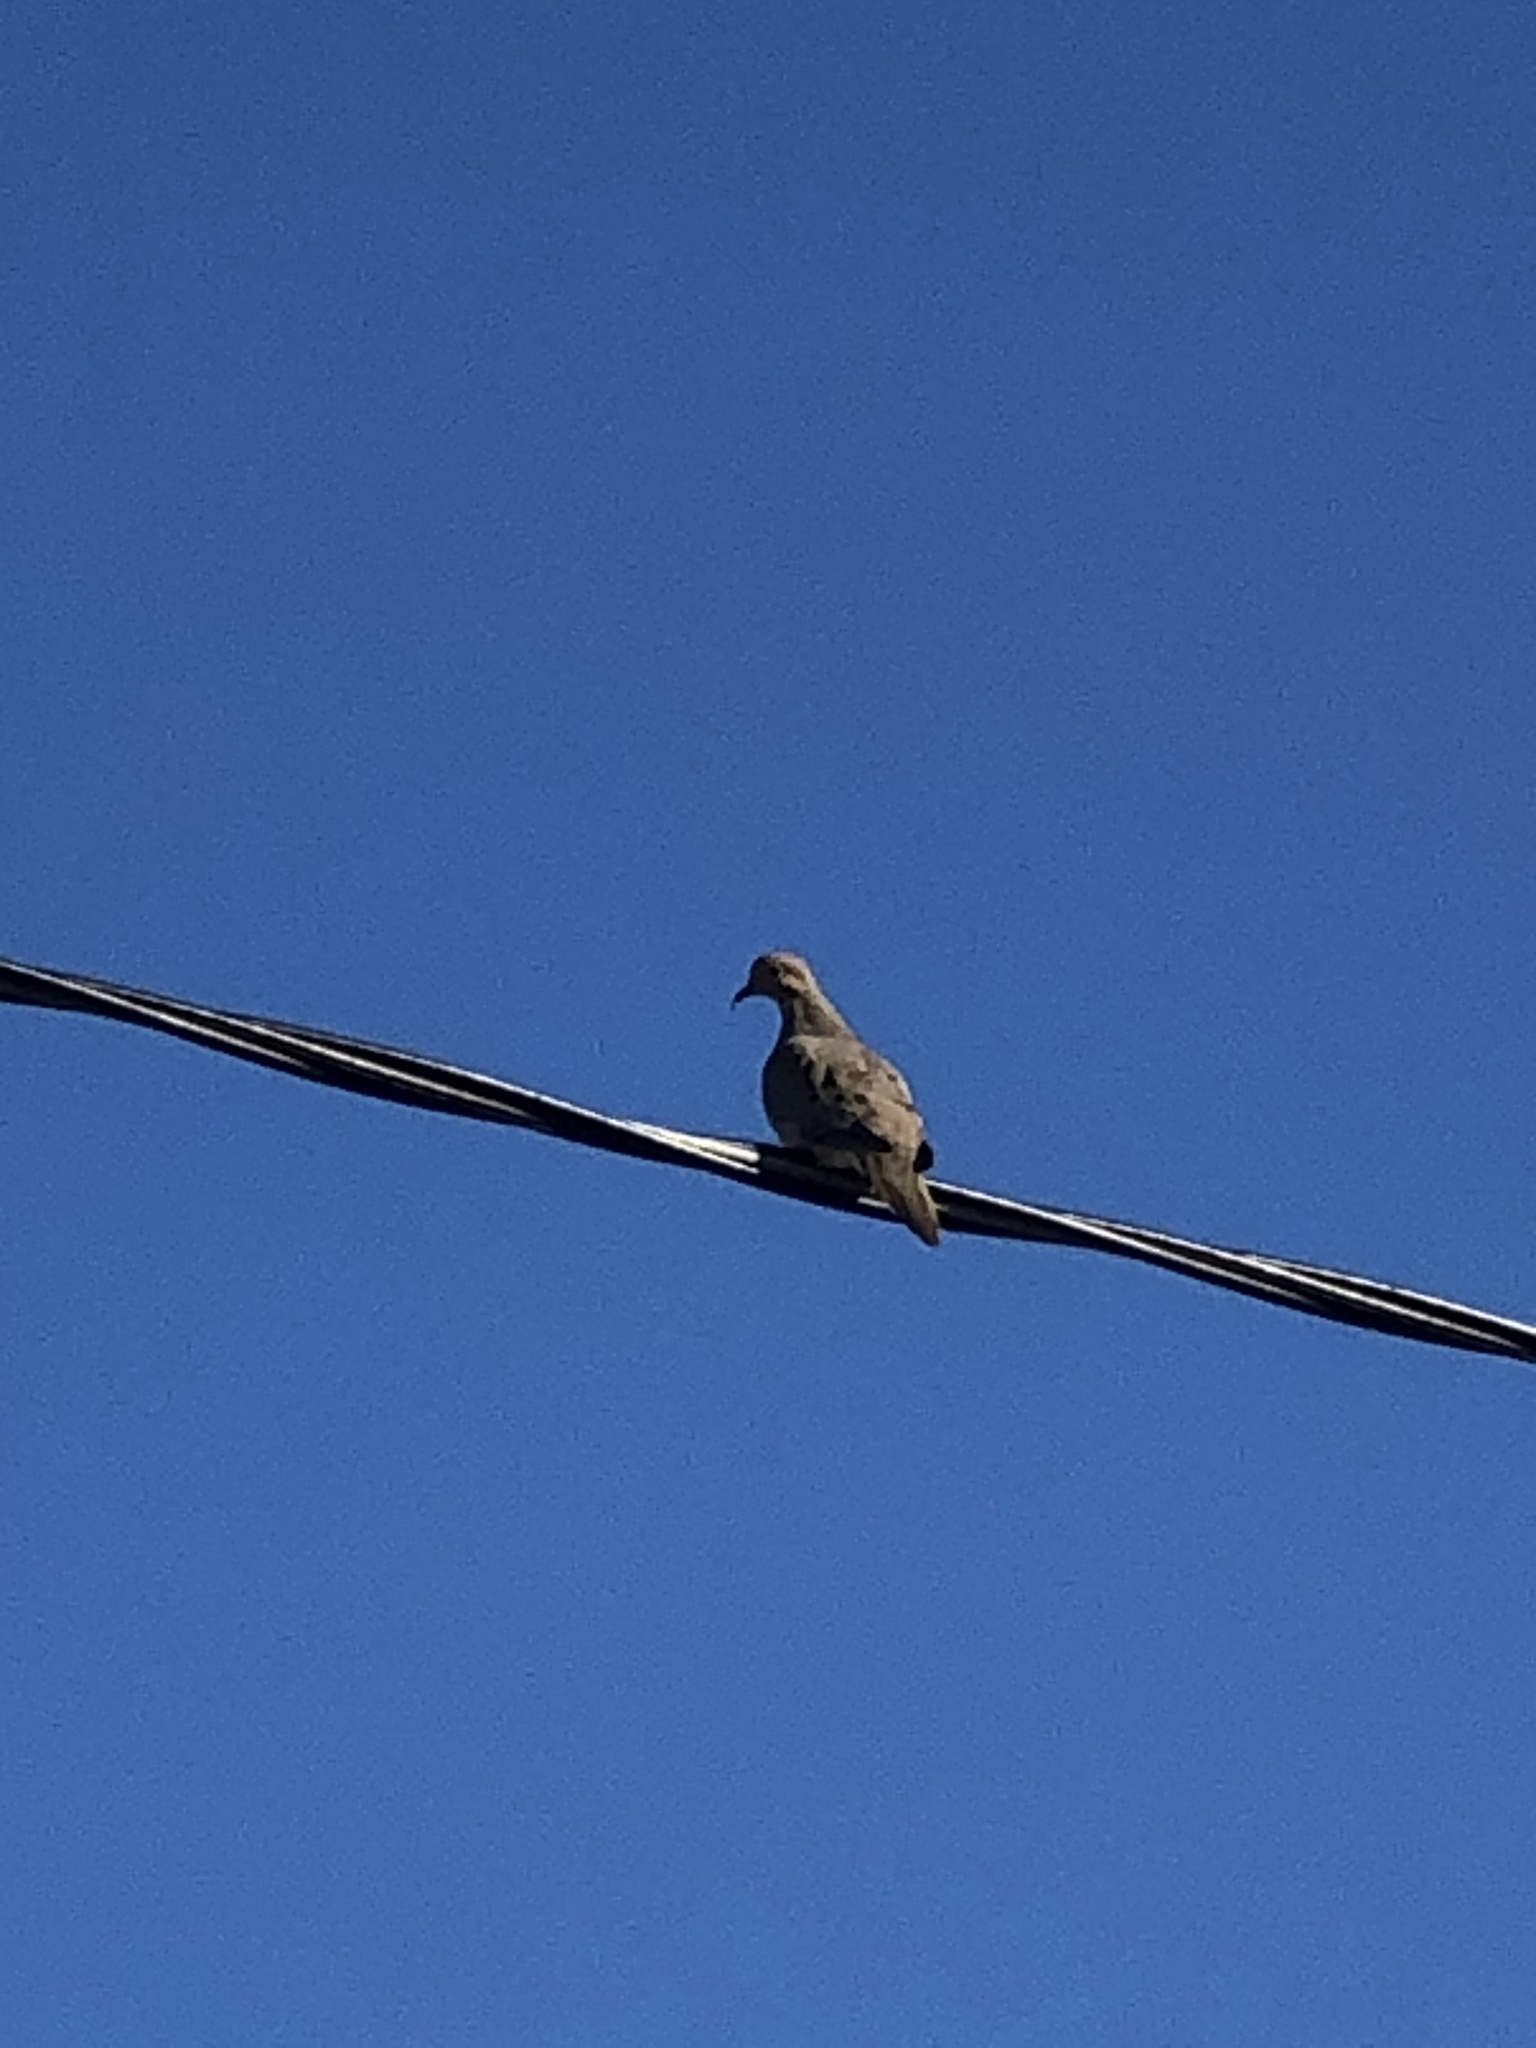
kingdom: Animalia
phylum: Chordata
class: Aves
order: Columbiformes
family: Columbidae
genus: Zenaida
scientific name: Zenaida macroura
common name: Mourning dove
